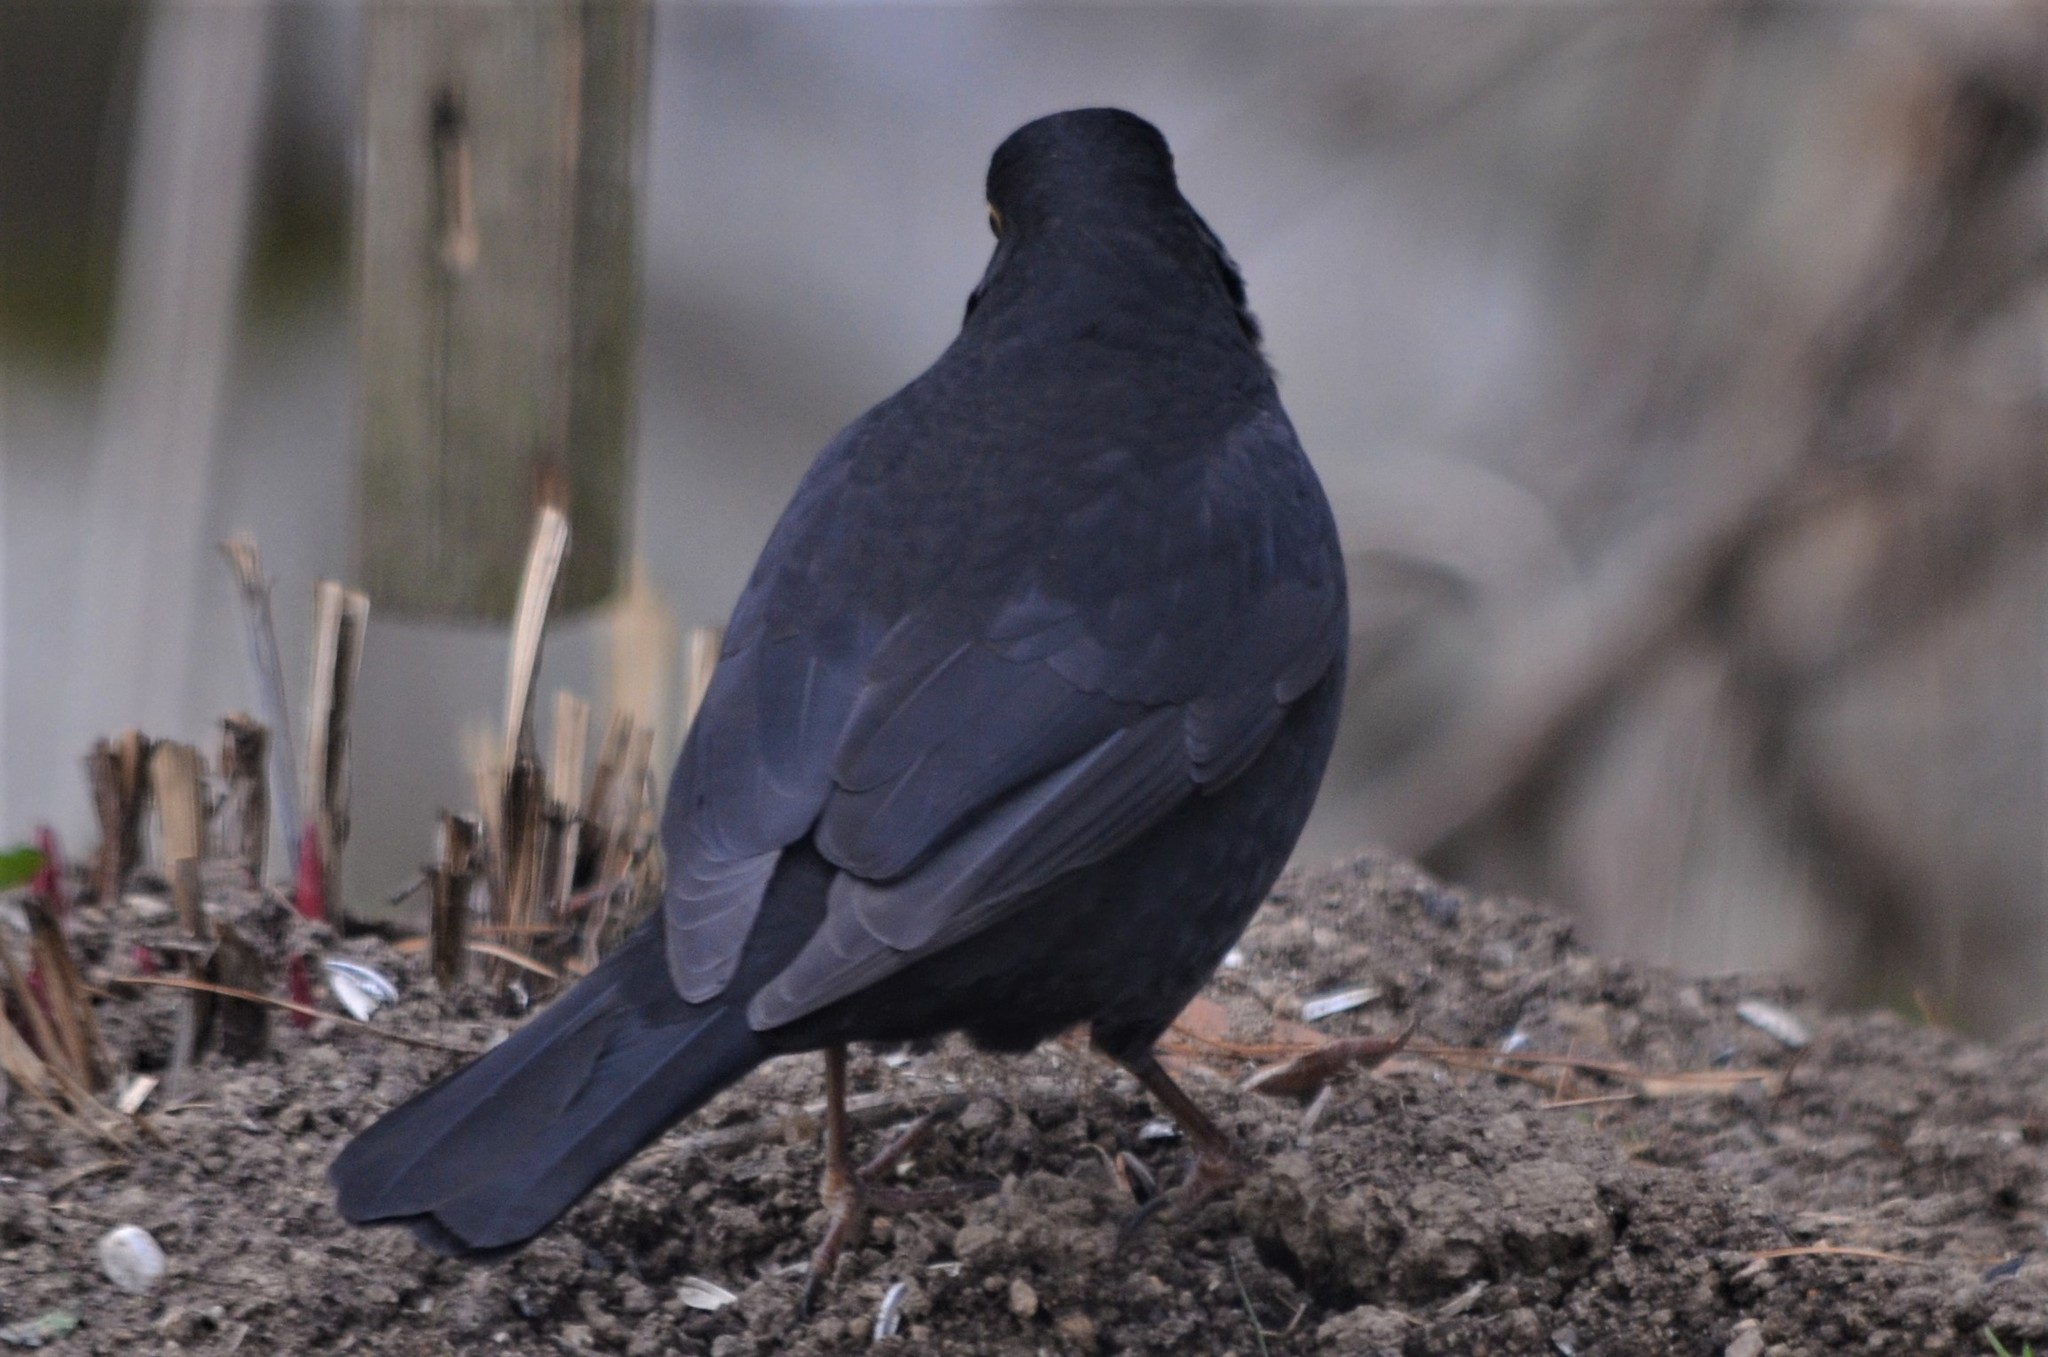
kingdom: Animalia
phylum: Chordata
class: Aves
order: Passeriformes
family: Turdidae
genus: Turdus
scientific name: Turdus merula
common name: Common blackbird
